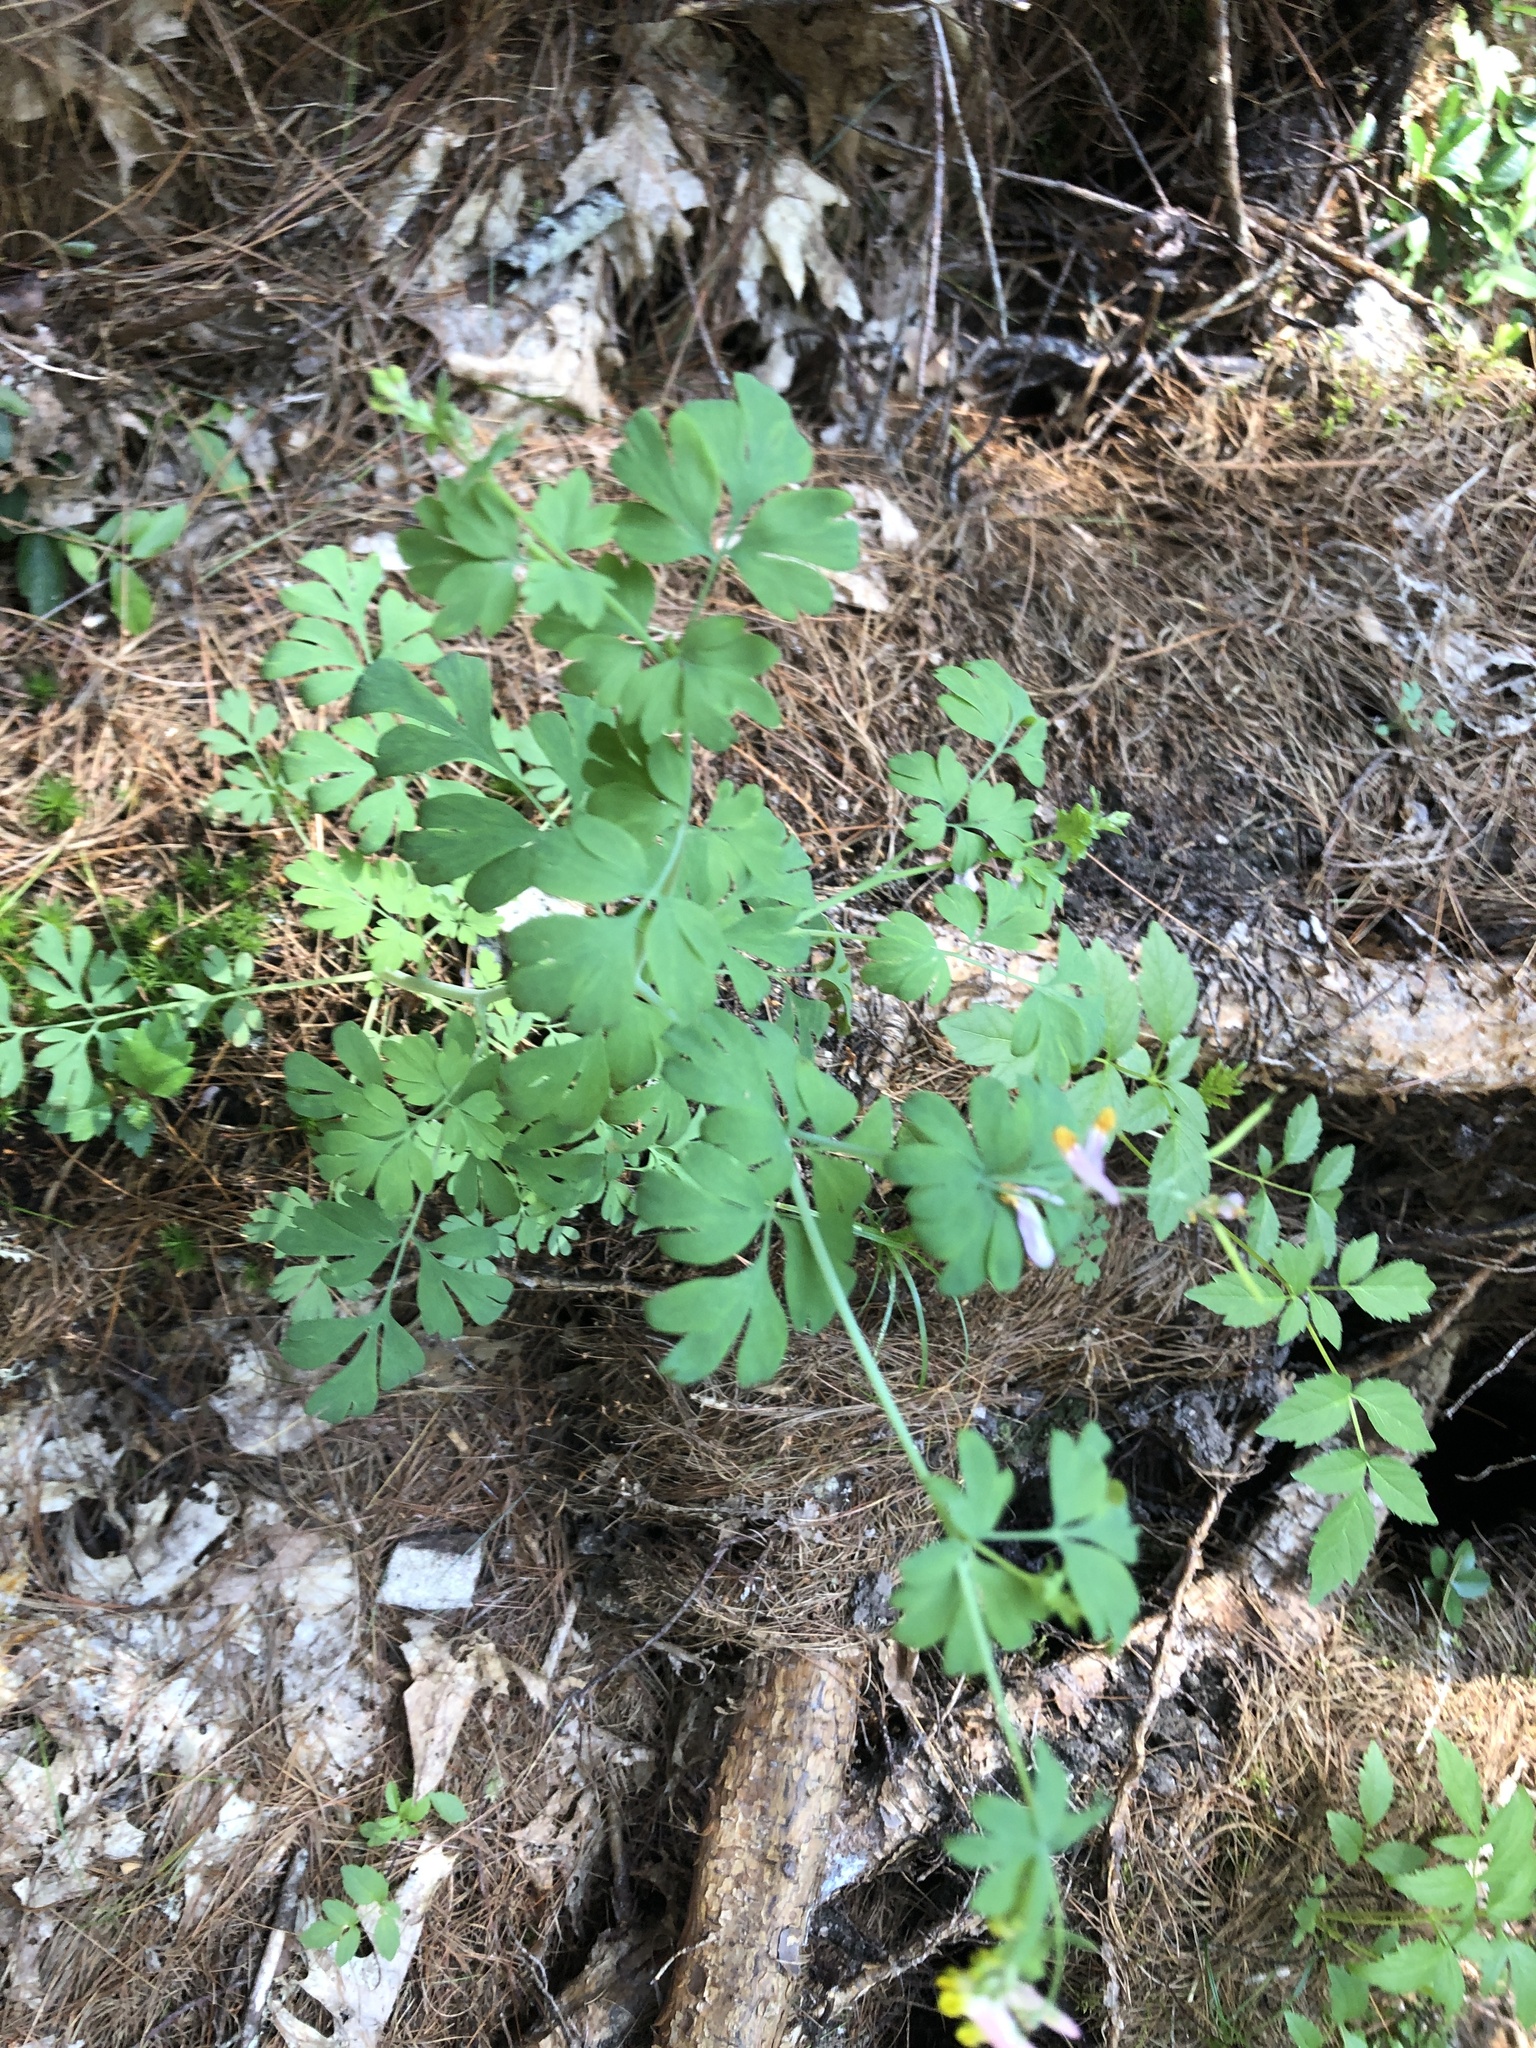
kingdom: Plantae
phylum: Tracheophyta
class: Magnoliopsida
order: Ranunculales
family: Papaveraceae
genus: Capnoides
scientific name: Capnoides sempervirens
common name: Rock harlequin
